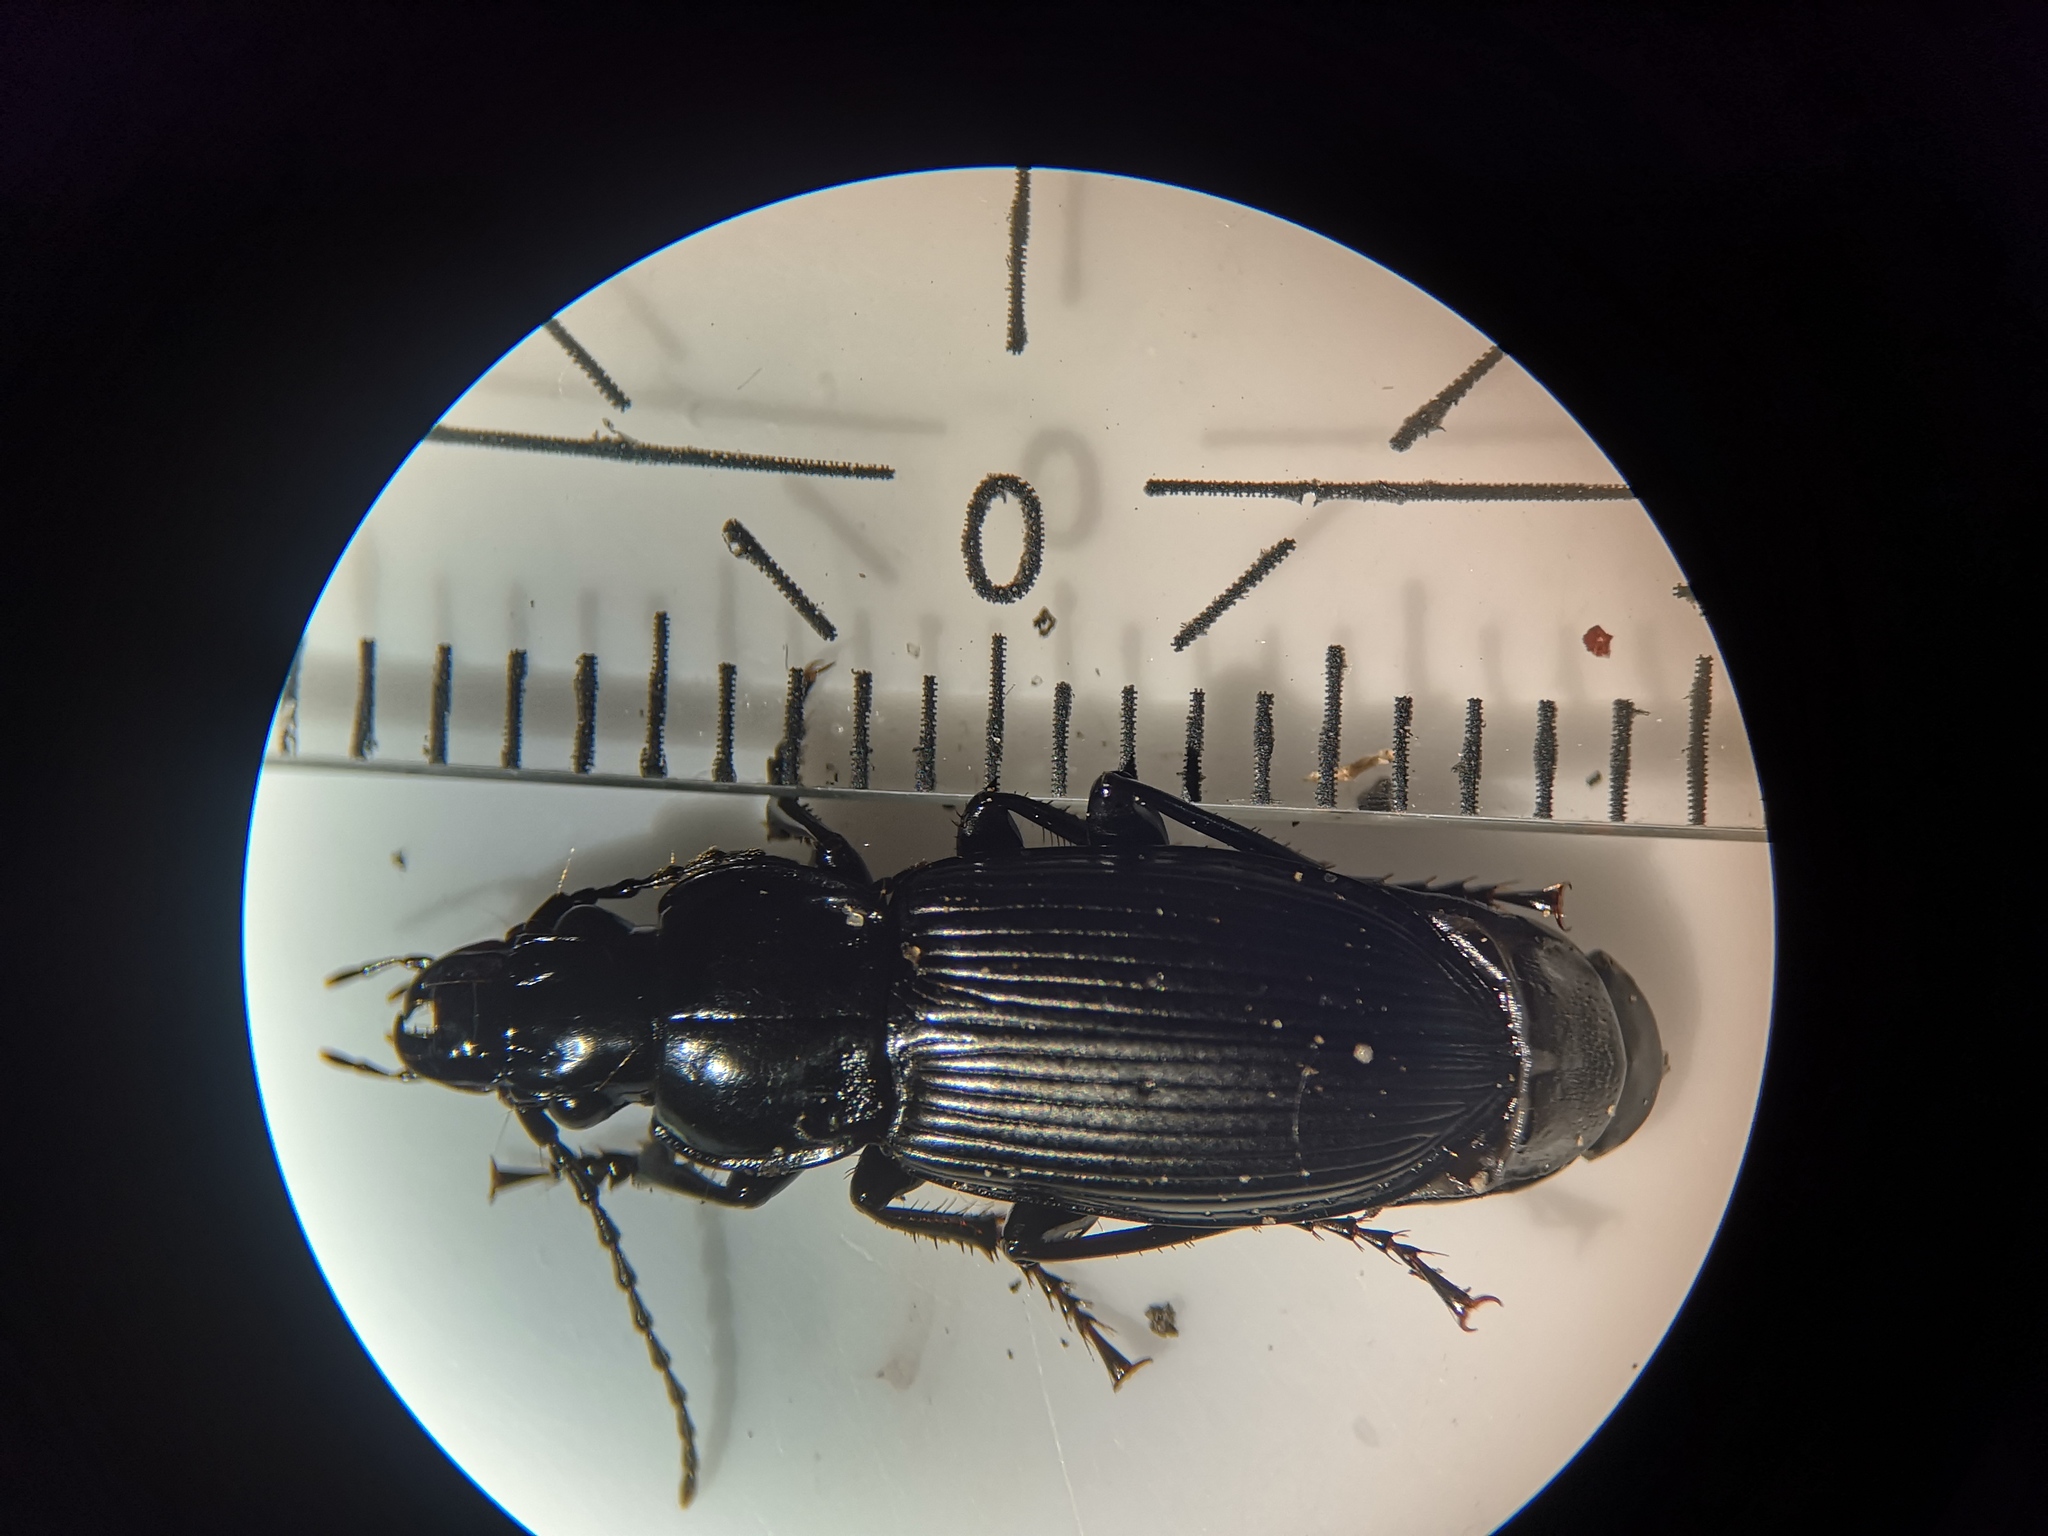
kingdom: Animalia
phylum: Arthropoda
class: Insecta
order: Coleoptera
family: Carabidae
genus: Pterostichus
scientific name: Pterostichus melanarius
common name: European dark harp ground beetle
